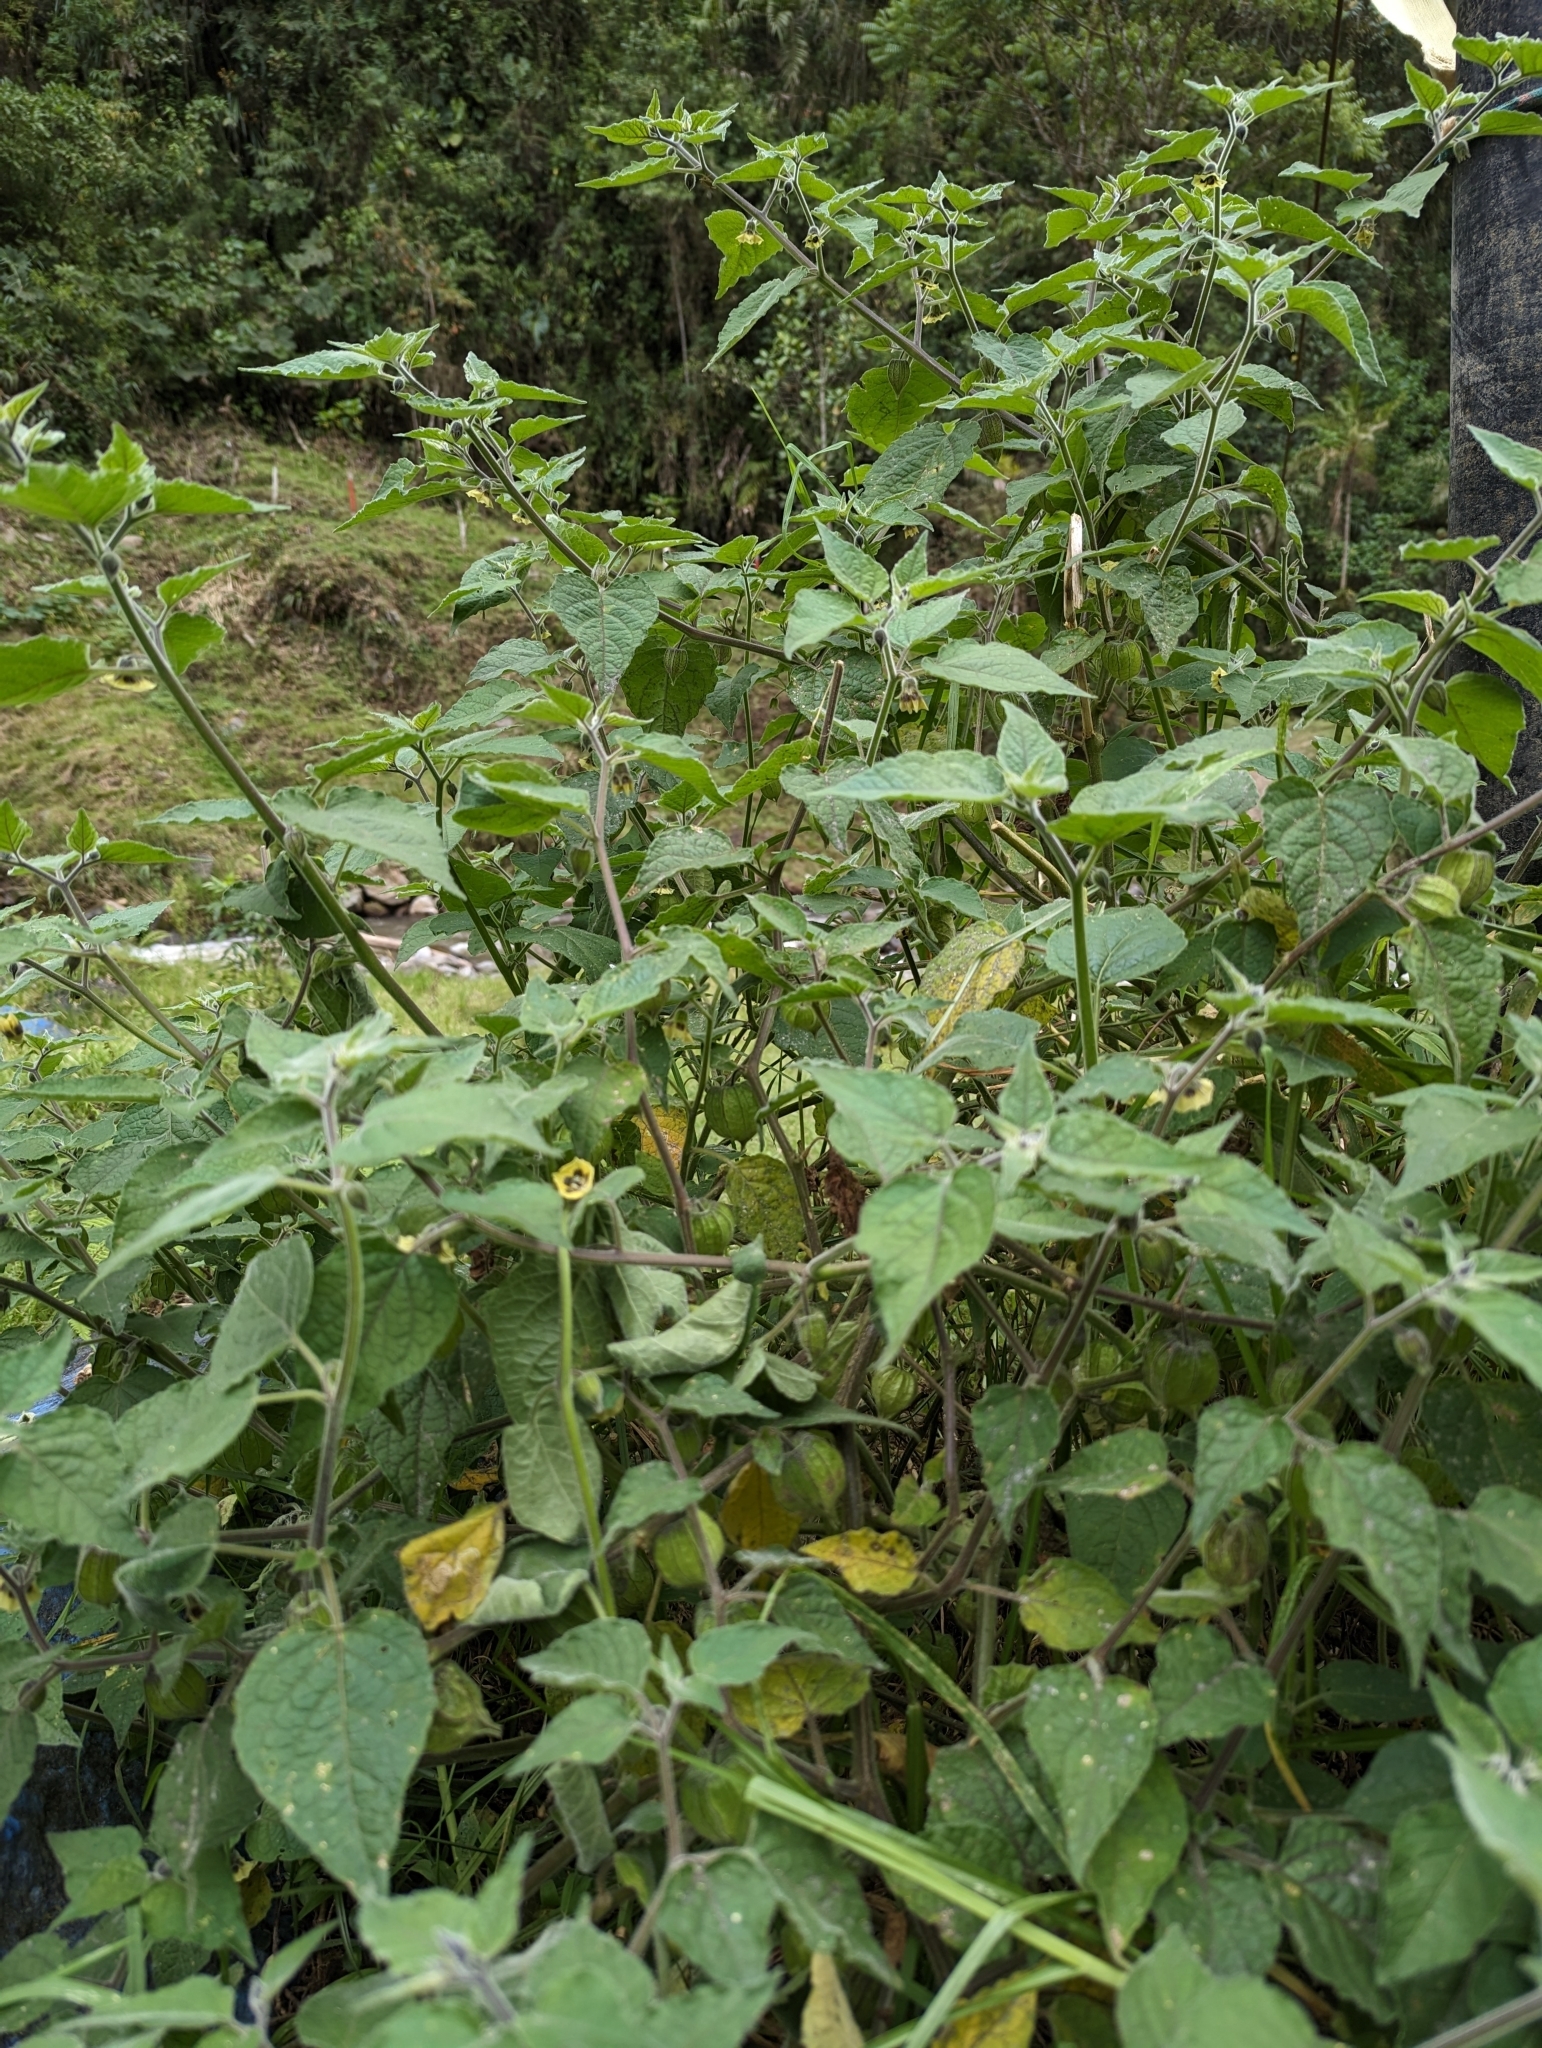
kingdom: Plantae
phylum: Tracheophyta
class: Magnoliopsida
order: Solanales
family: Solanaceae
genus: Physalis
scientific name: Physalis peruviana
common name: Cape-gooseberry
